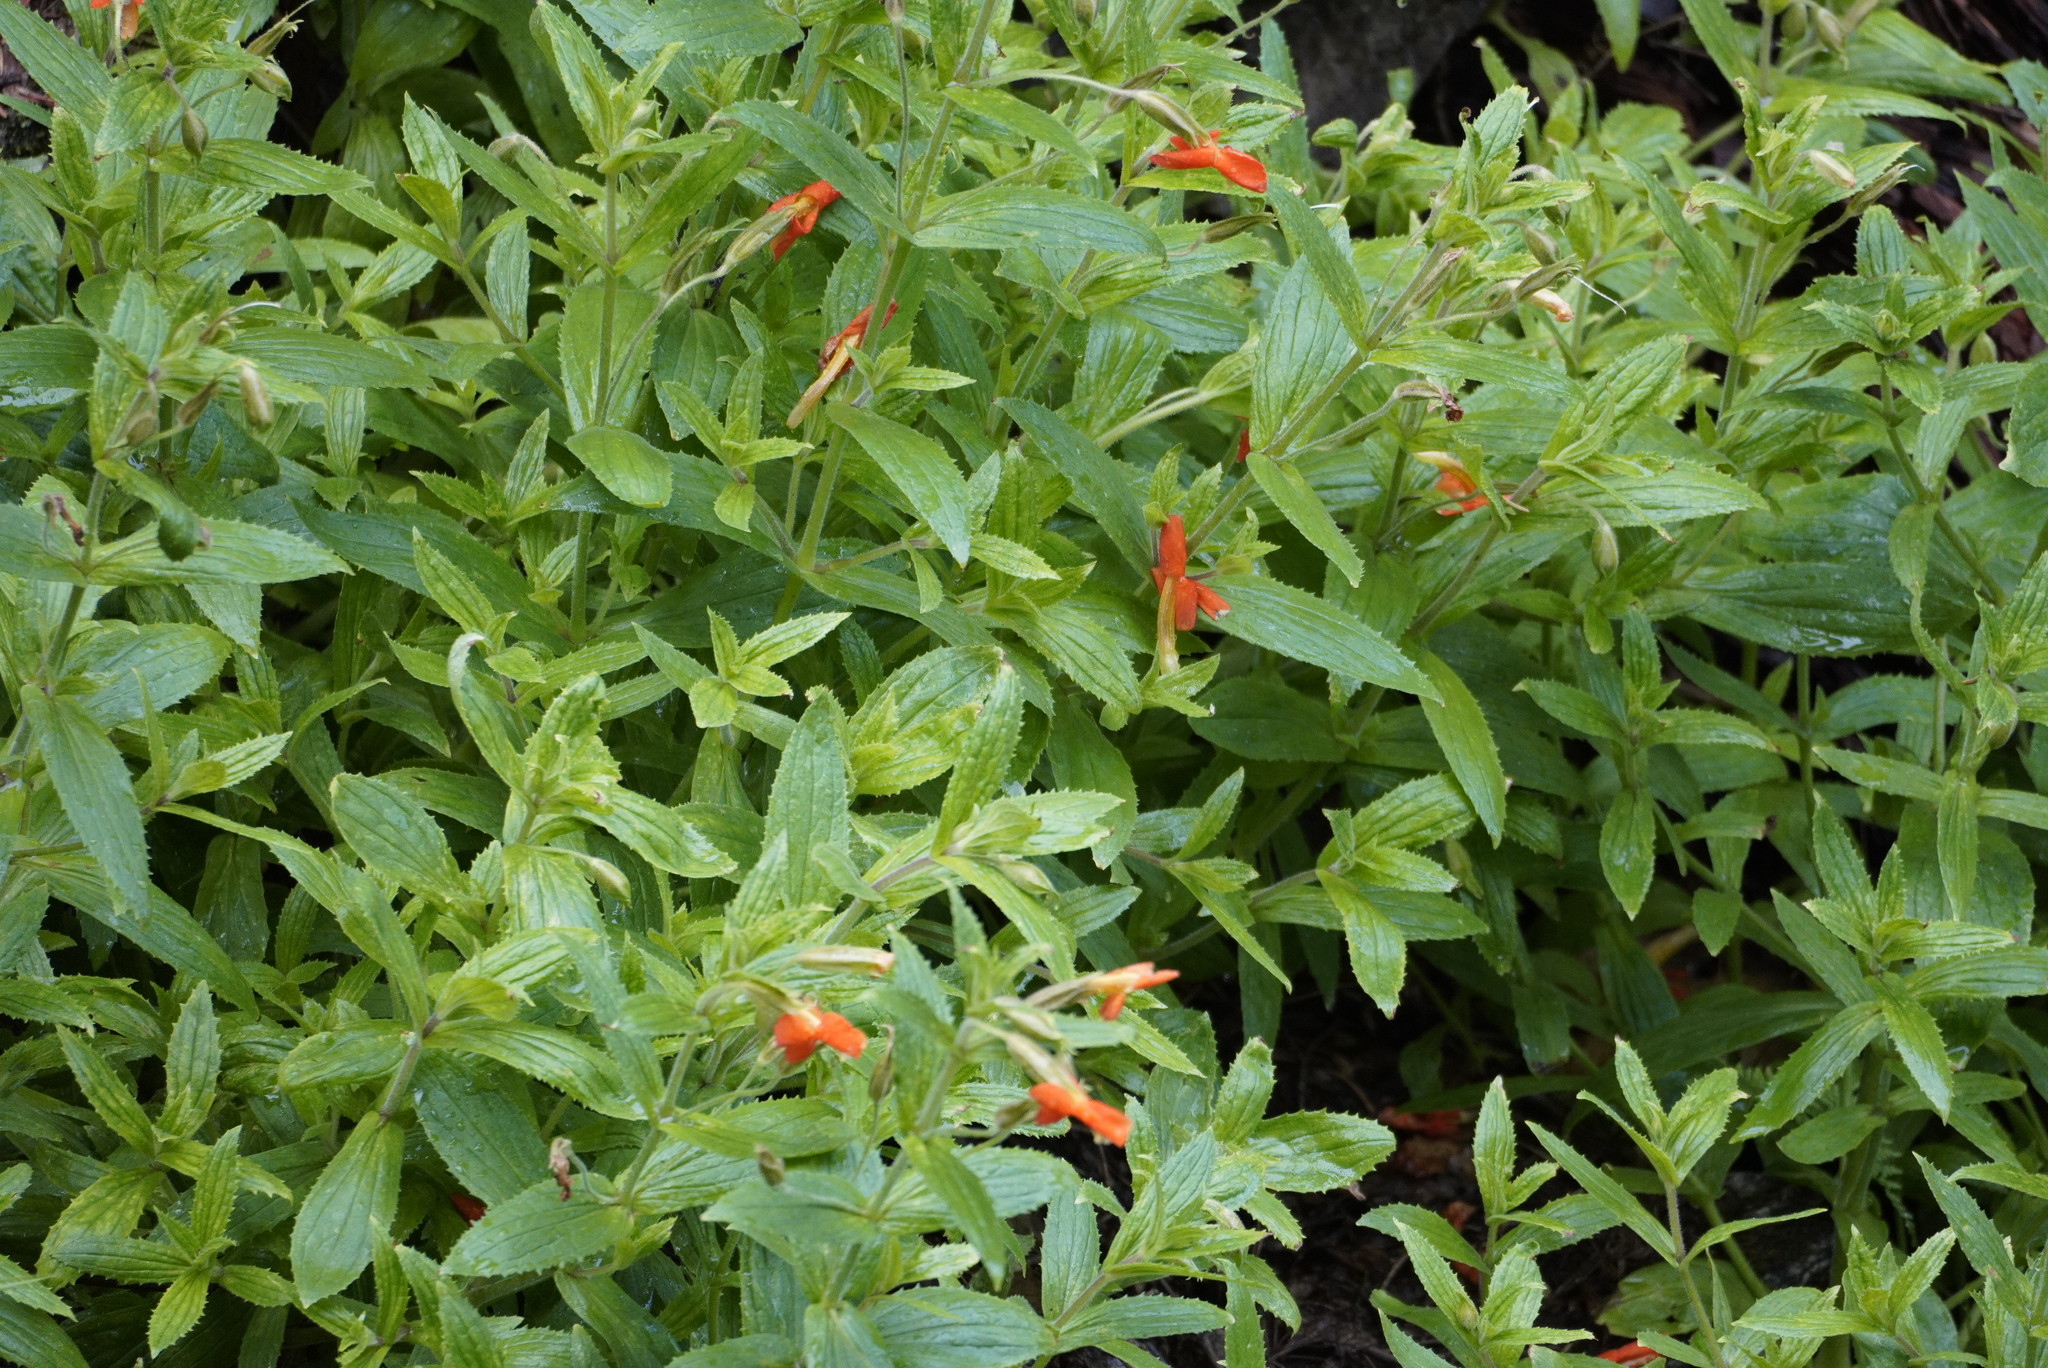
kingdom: Plantae
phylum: Tracheophyta
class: Magnoliopsida
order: Lamiales
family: Phrymaceae
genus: Erythranthe
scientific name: Erythranthe cinnabarina
